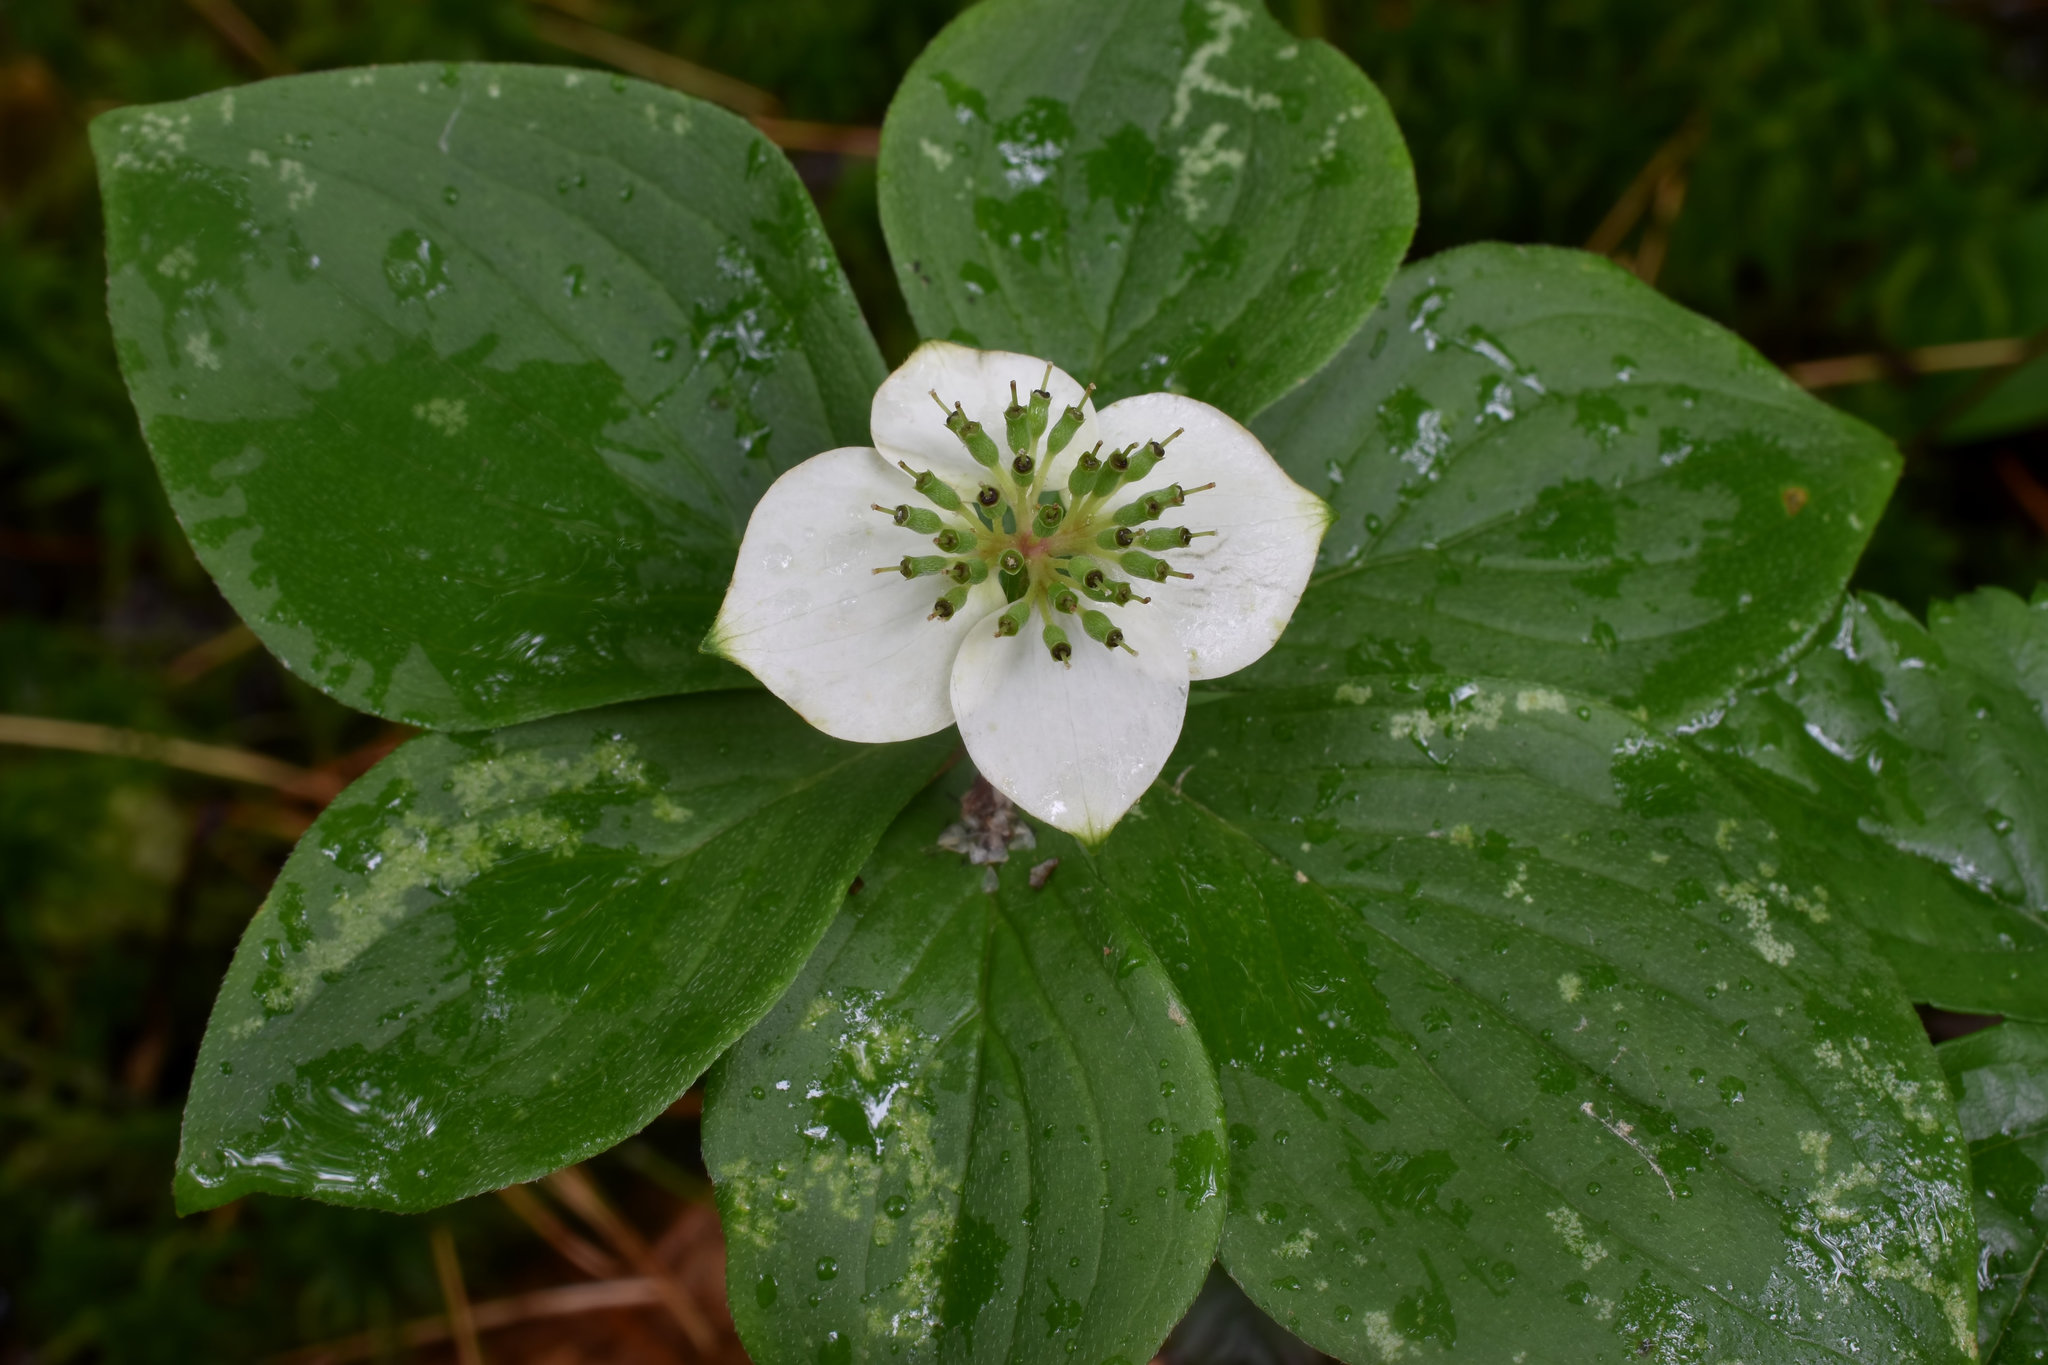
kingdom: Plantae
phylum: Tracheophyta
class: Magnoliopsida
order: Cornales
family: Cornaceae
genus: Cornus
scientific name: Cornus canadensis
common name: Creeping dogwood
